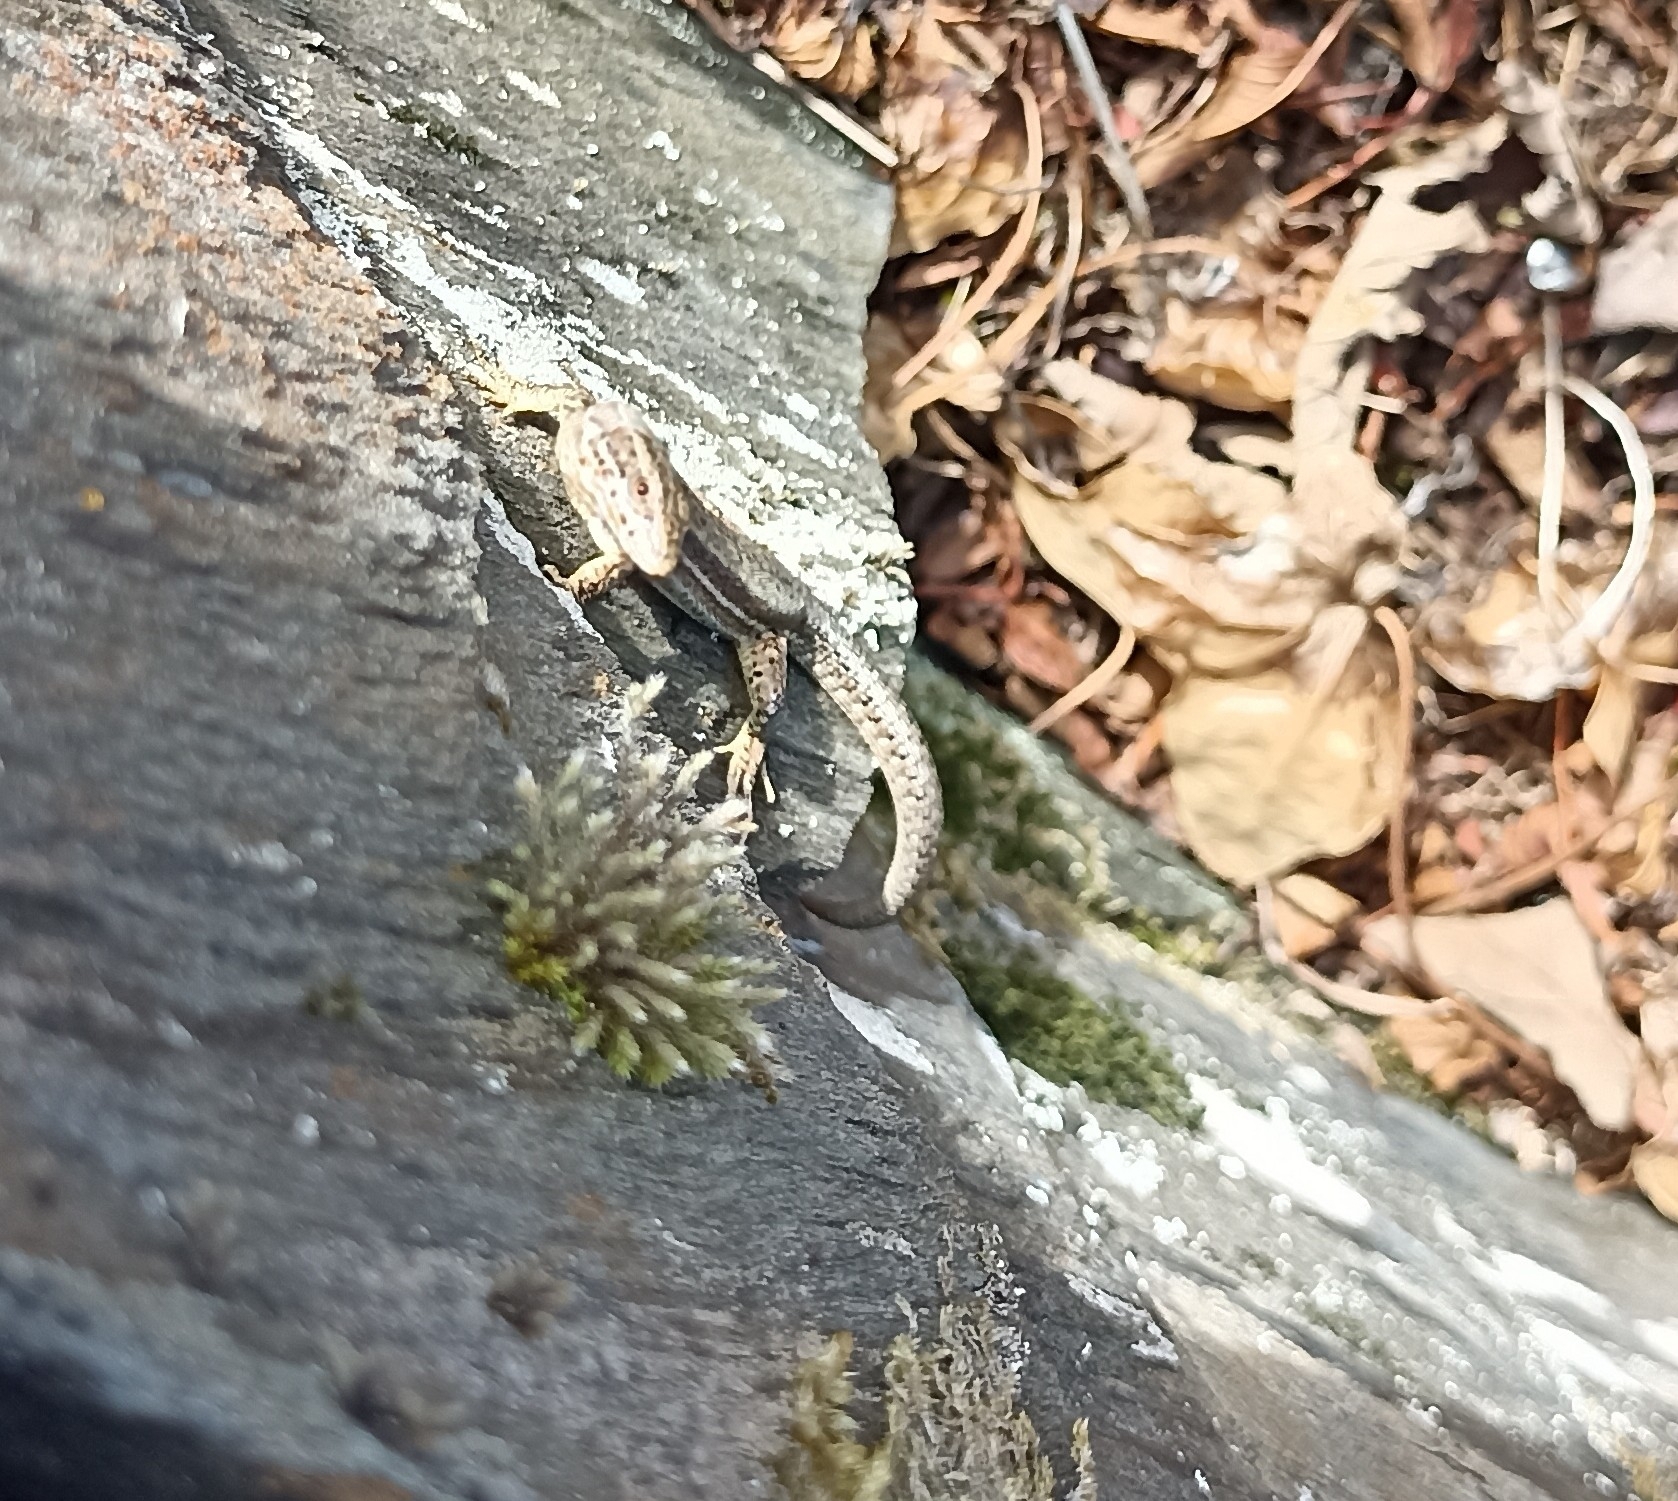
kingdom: Animalia
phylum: Chordata
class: Squamata
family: Lacertidae
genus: Podarcis
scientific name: Podarcis muralis
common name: Common wall lizard
